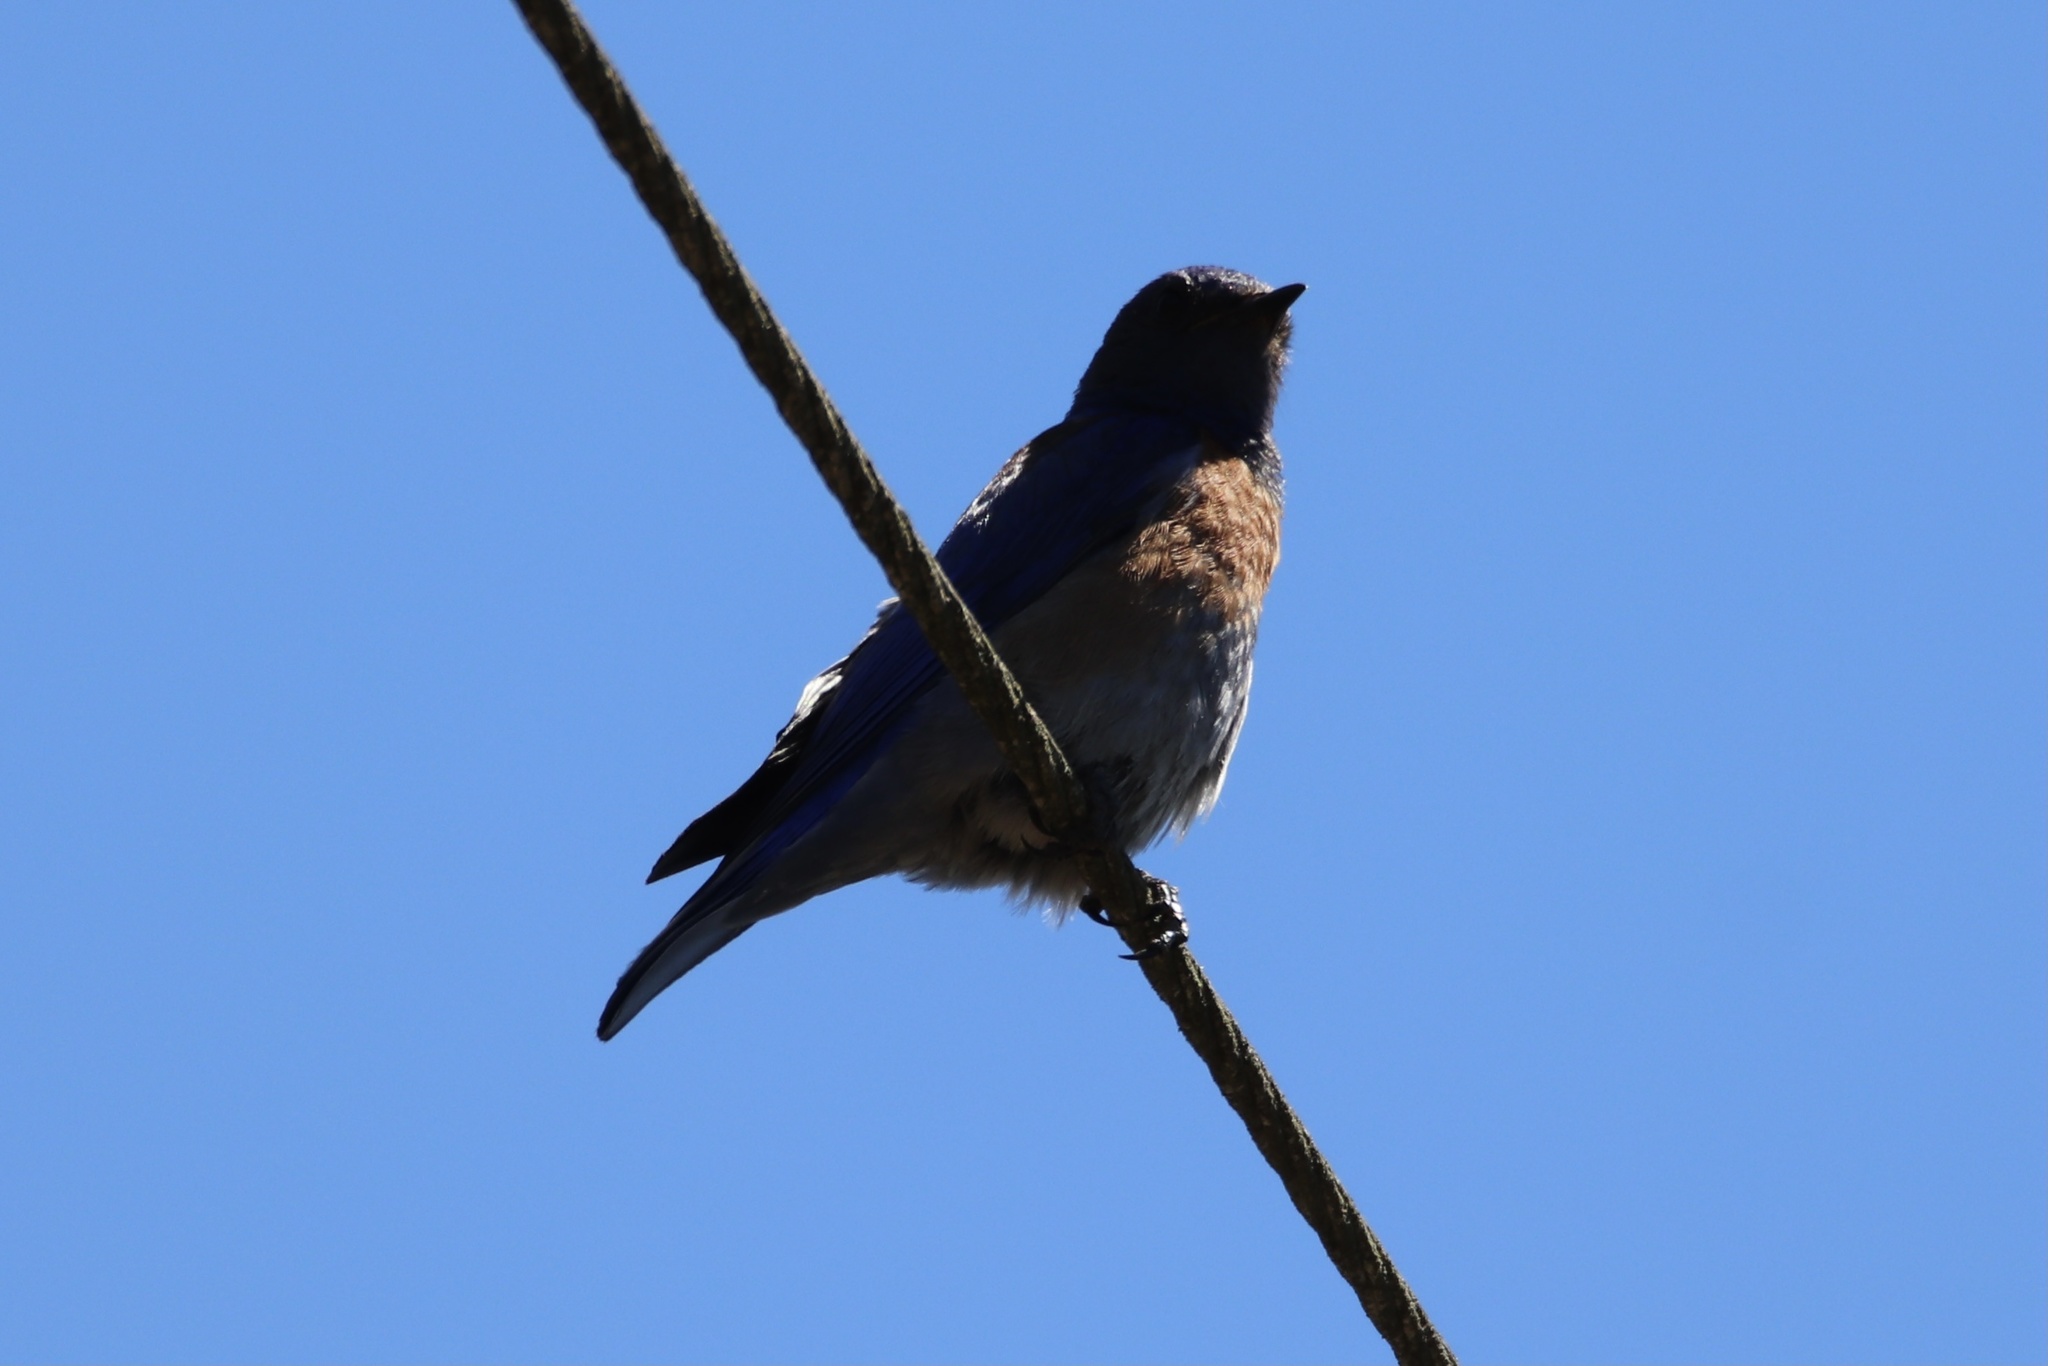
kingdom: Animalia
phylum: Chordata
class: Aves
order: Passeriformes
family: Turdidae
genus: Sialia
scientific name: Sialia mexicana
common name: Western bluebird
